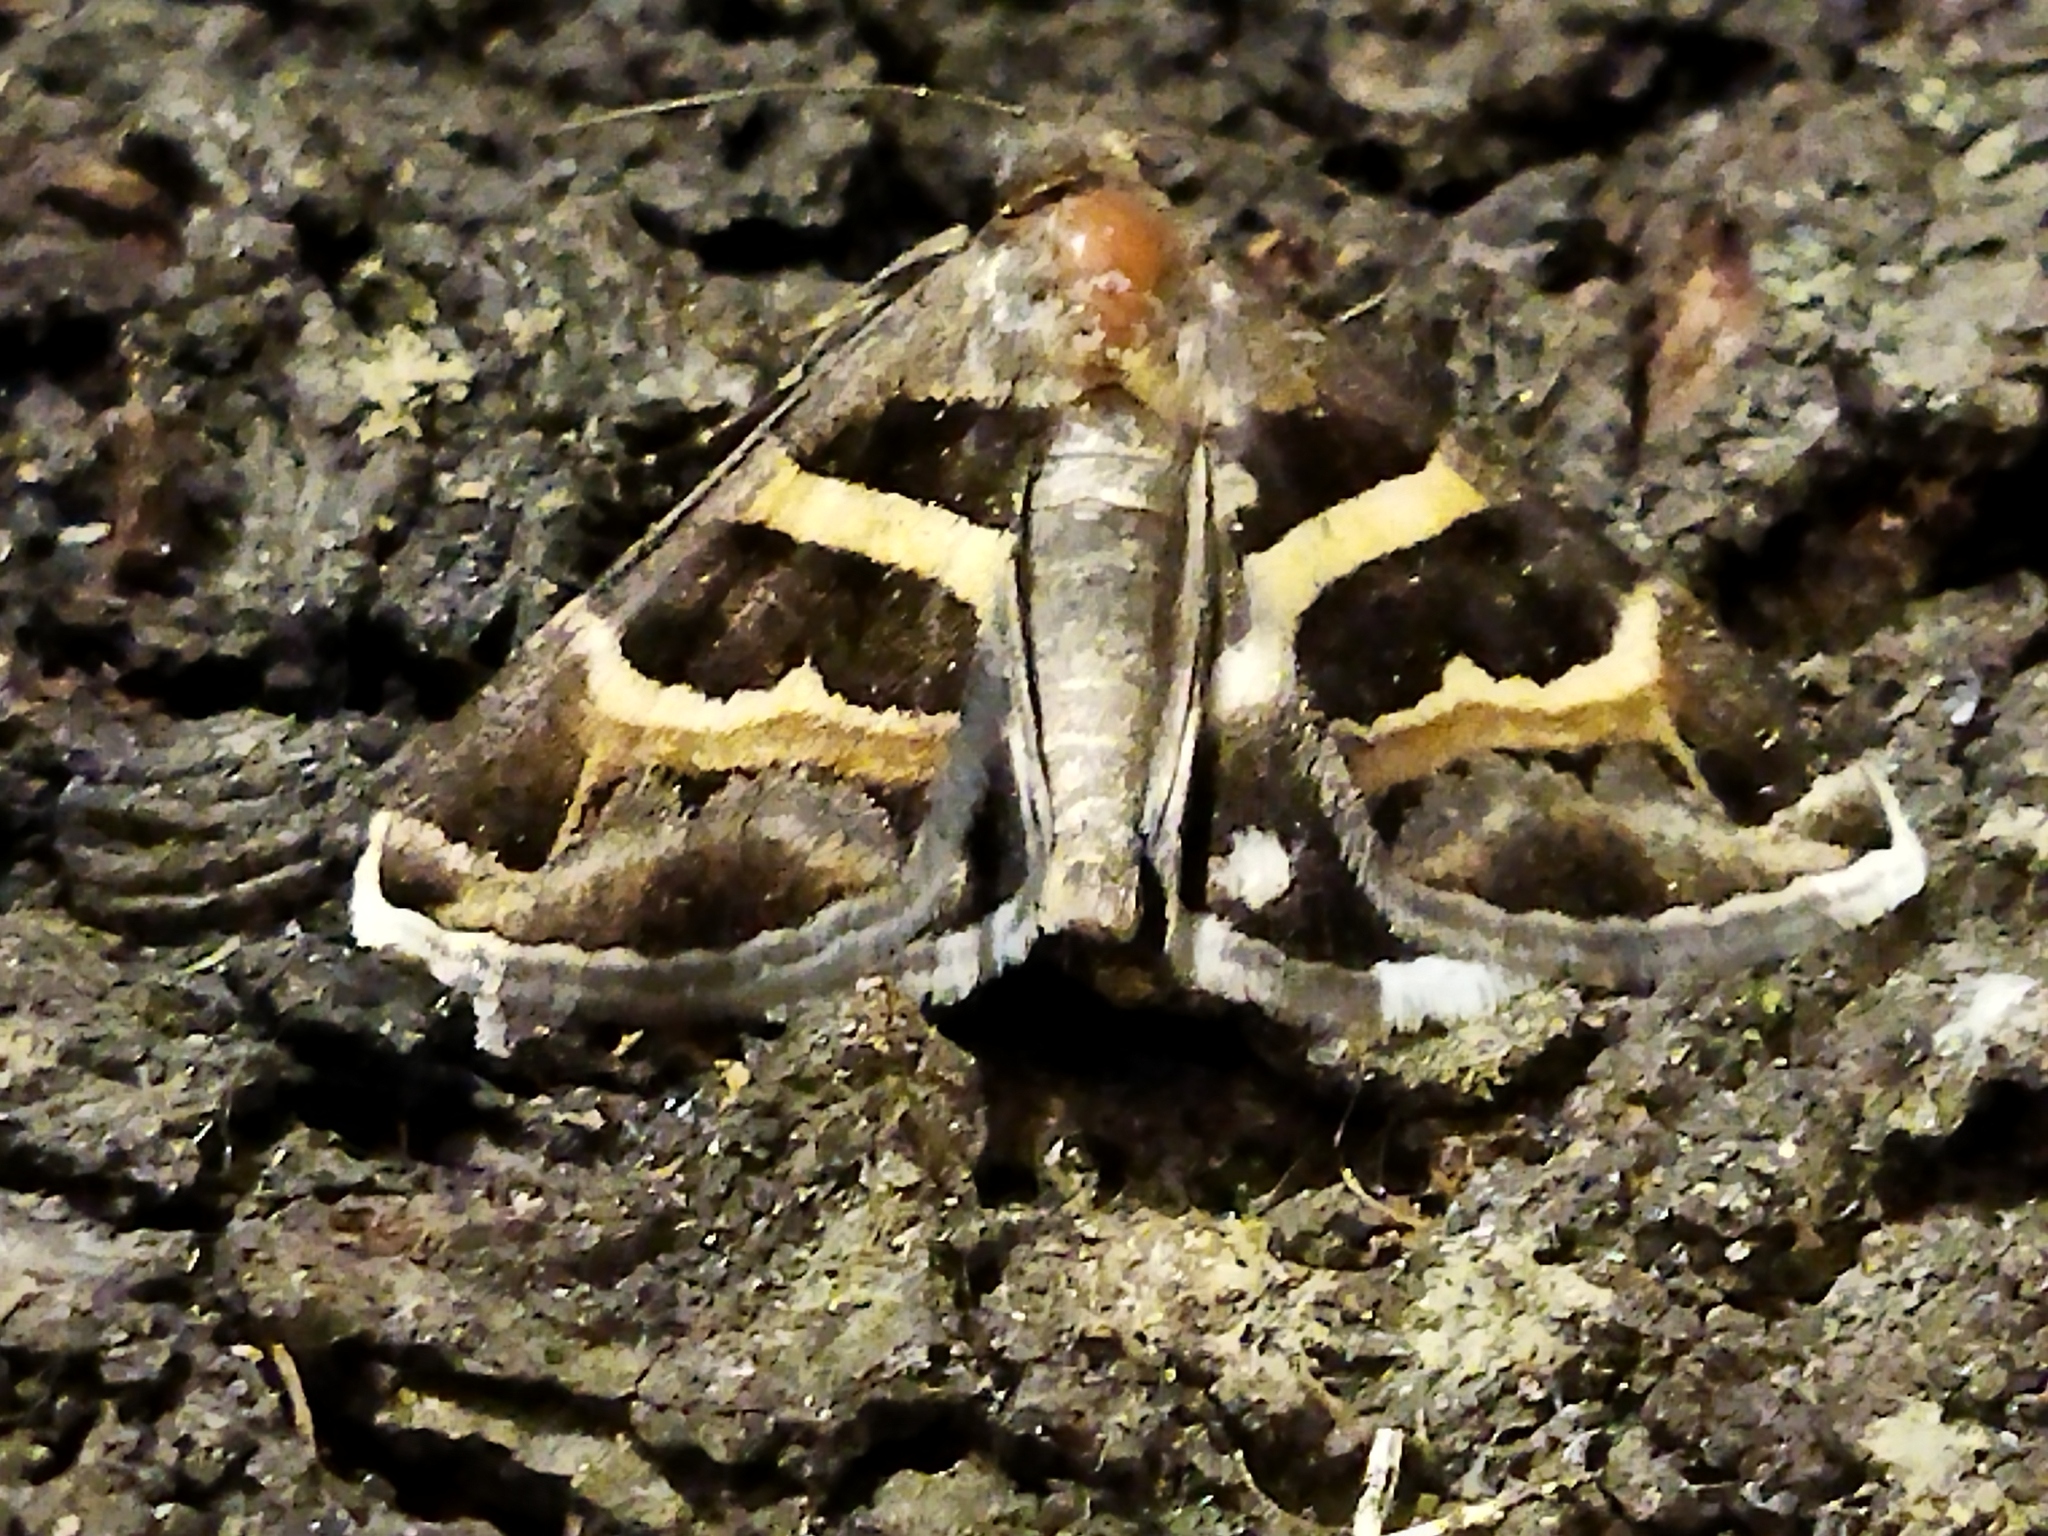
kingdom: Animalia
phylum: Arthropoda
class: Insecta
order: Lepidoptera
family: Erebidae
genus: Grammodes
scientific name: Grammodes stolida
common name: Geometrician
